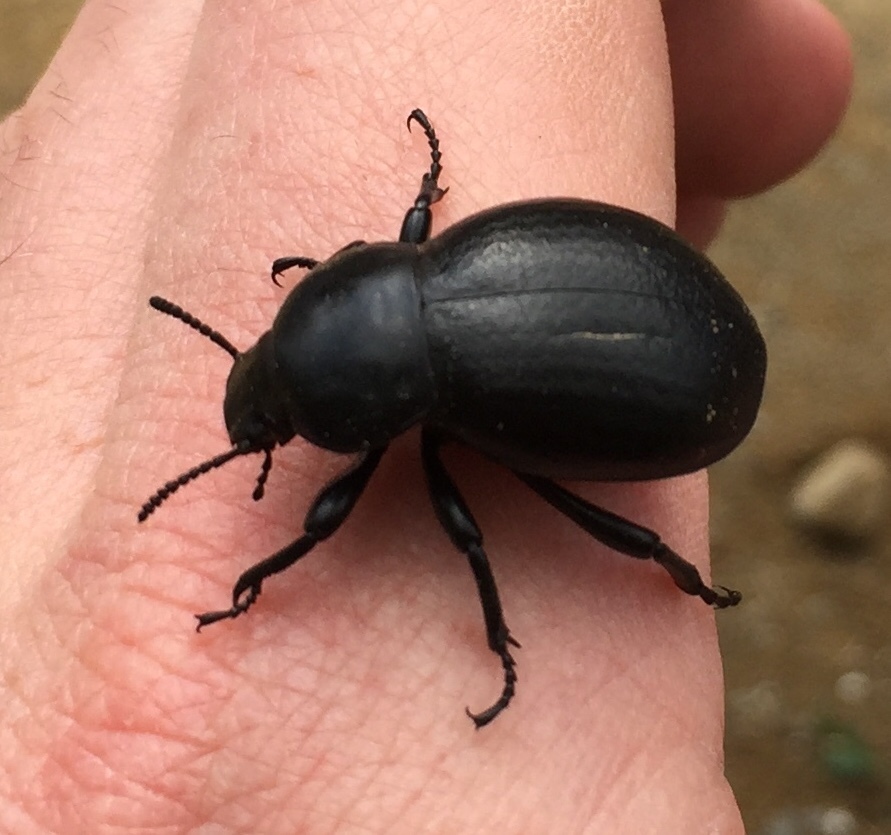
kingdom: Animalia
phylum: Arthropoda
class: Insecta
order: Coleoptera
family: Tenebrionidae
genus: Gnaptor
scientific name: Gnaptor boryi
